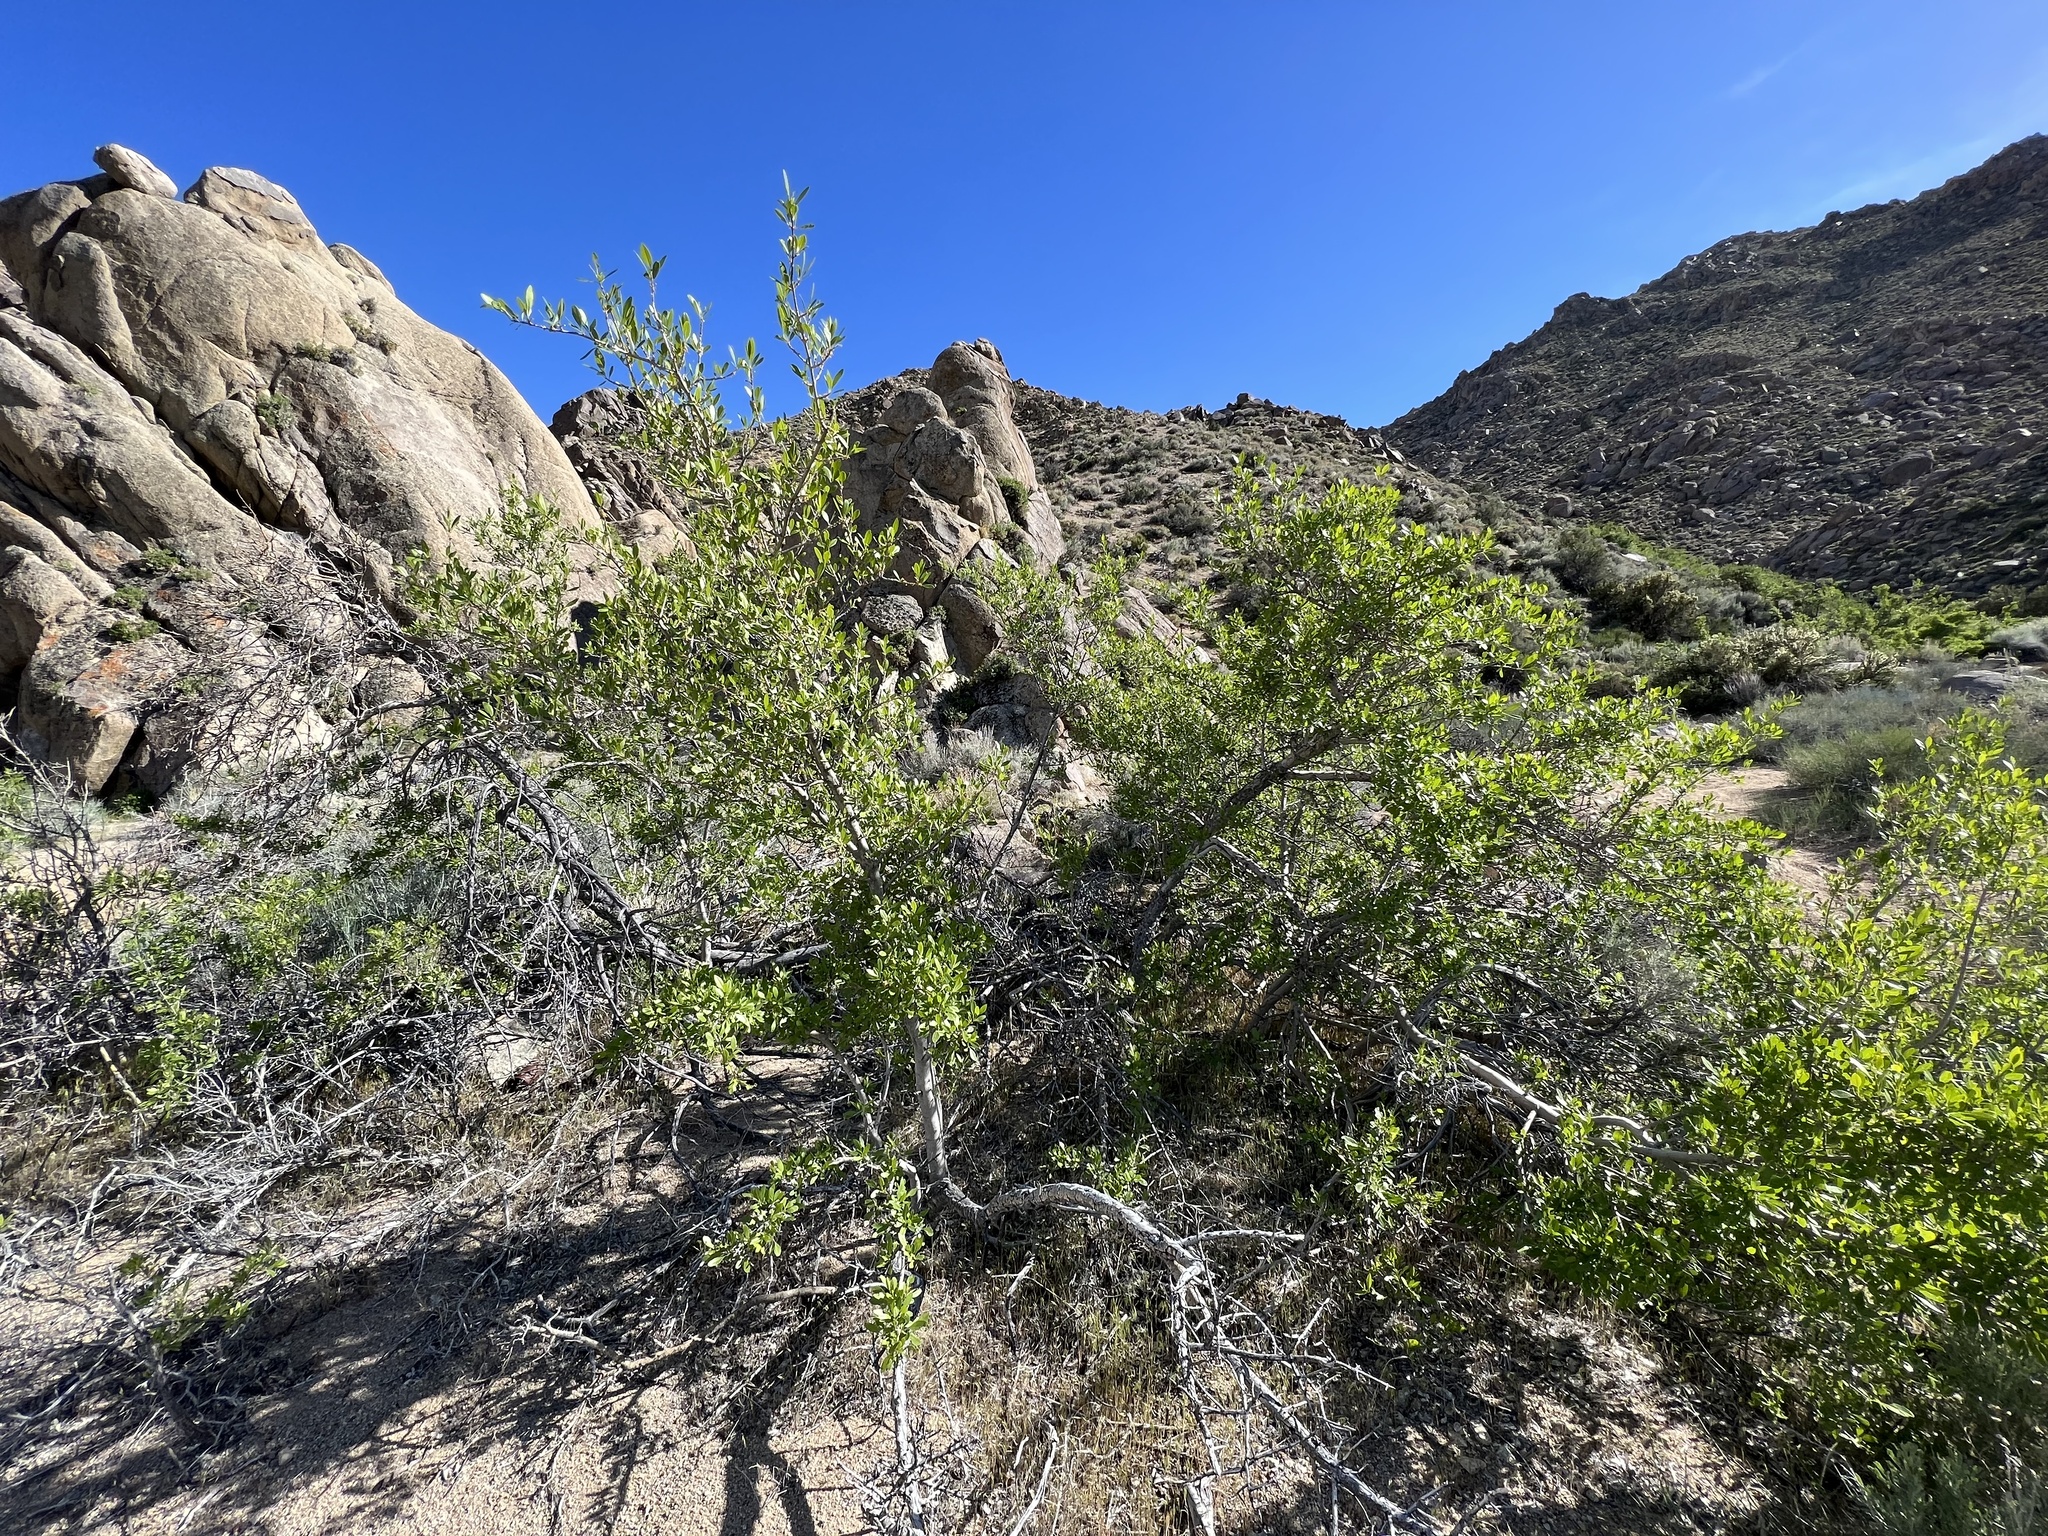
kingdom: Plantae
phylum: Tracheophyta
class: Magnoliopsida
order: Lamiales
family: Oleaceae
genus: Forestiera
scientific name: Forestiera pubescens
